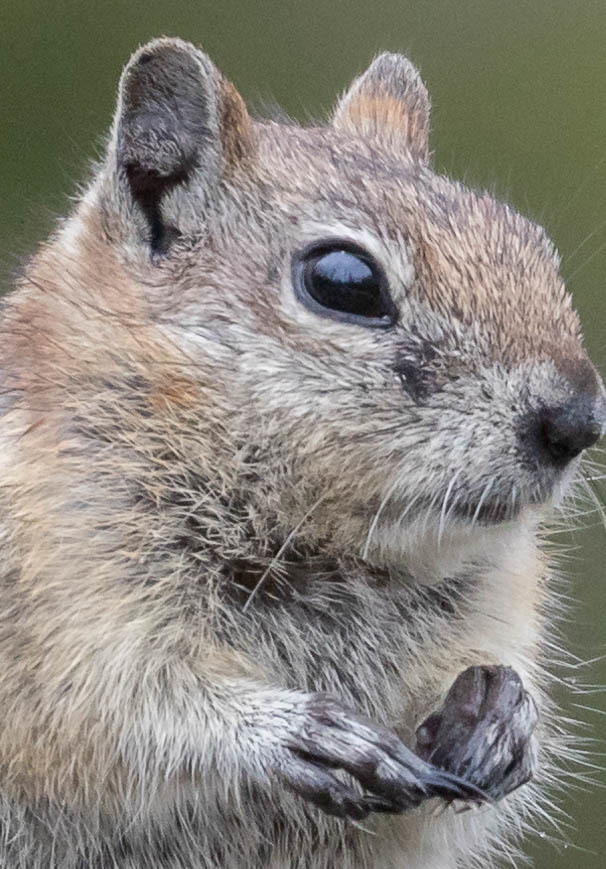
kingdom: Animalia
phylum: Chordata
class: Mammalia
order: Rodentia
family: Sciuridae
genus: Callospermophilus
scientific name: Callospermophilus lateralis
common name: Golden-mantled ground squirrel
